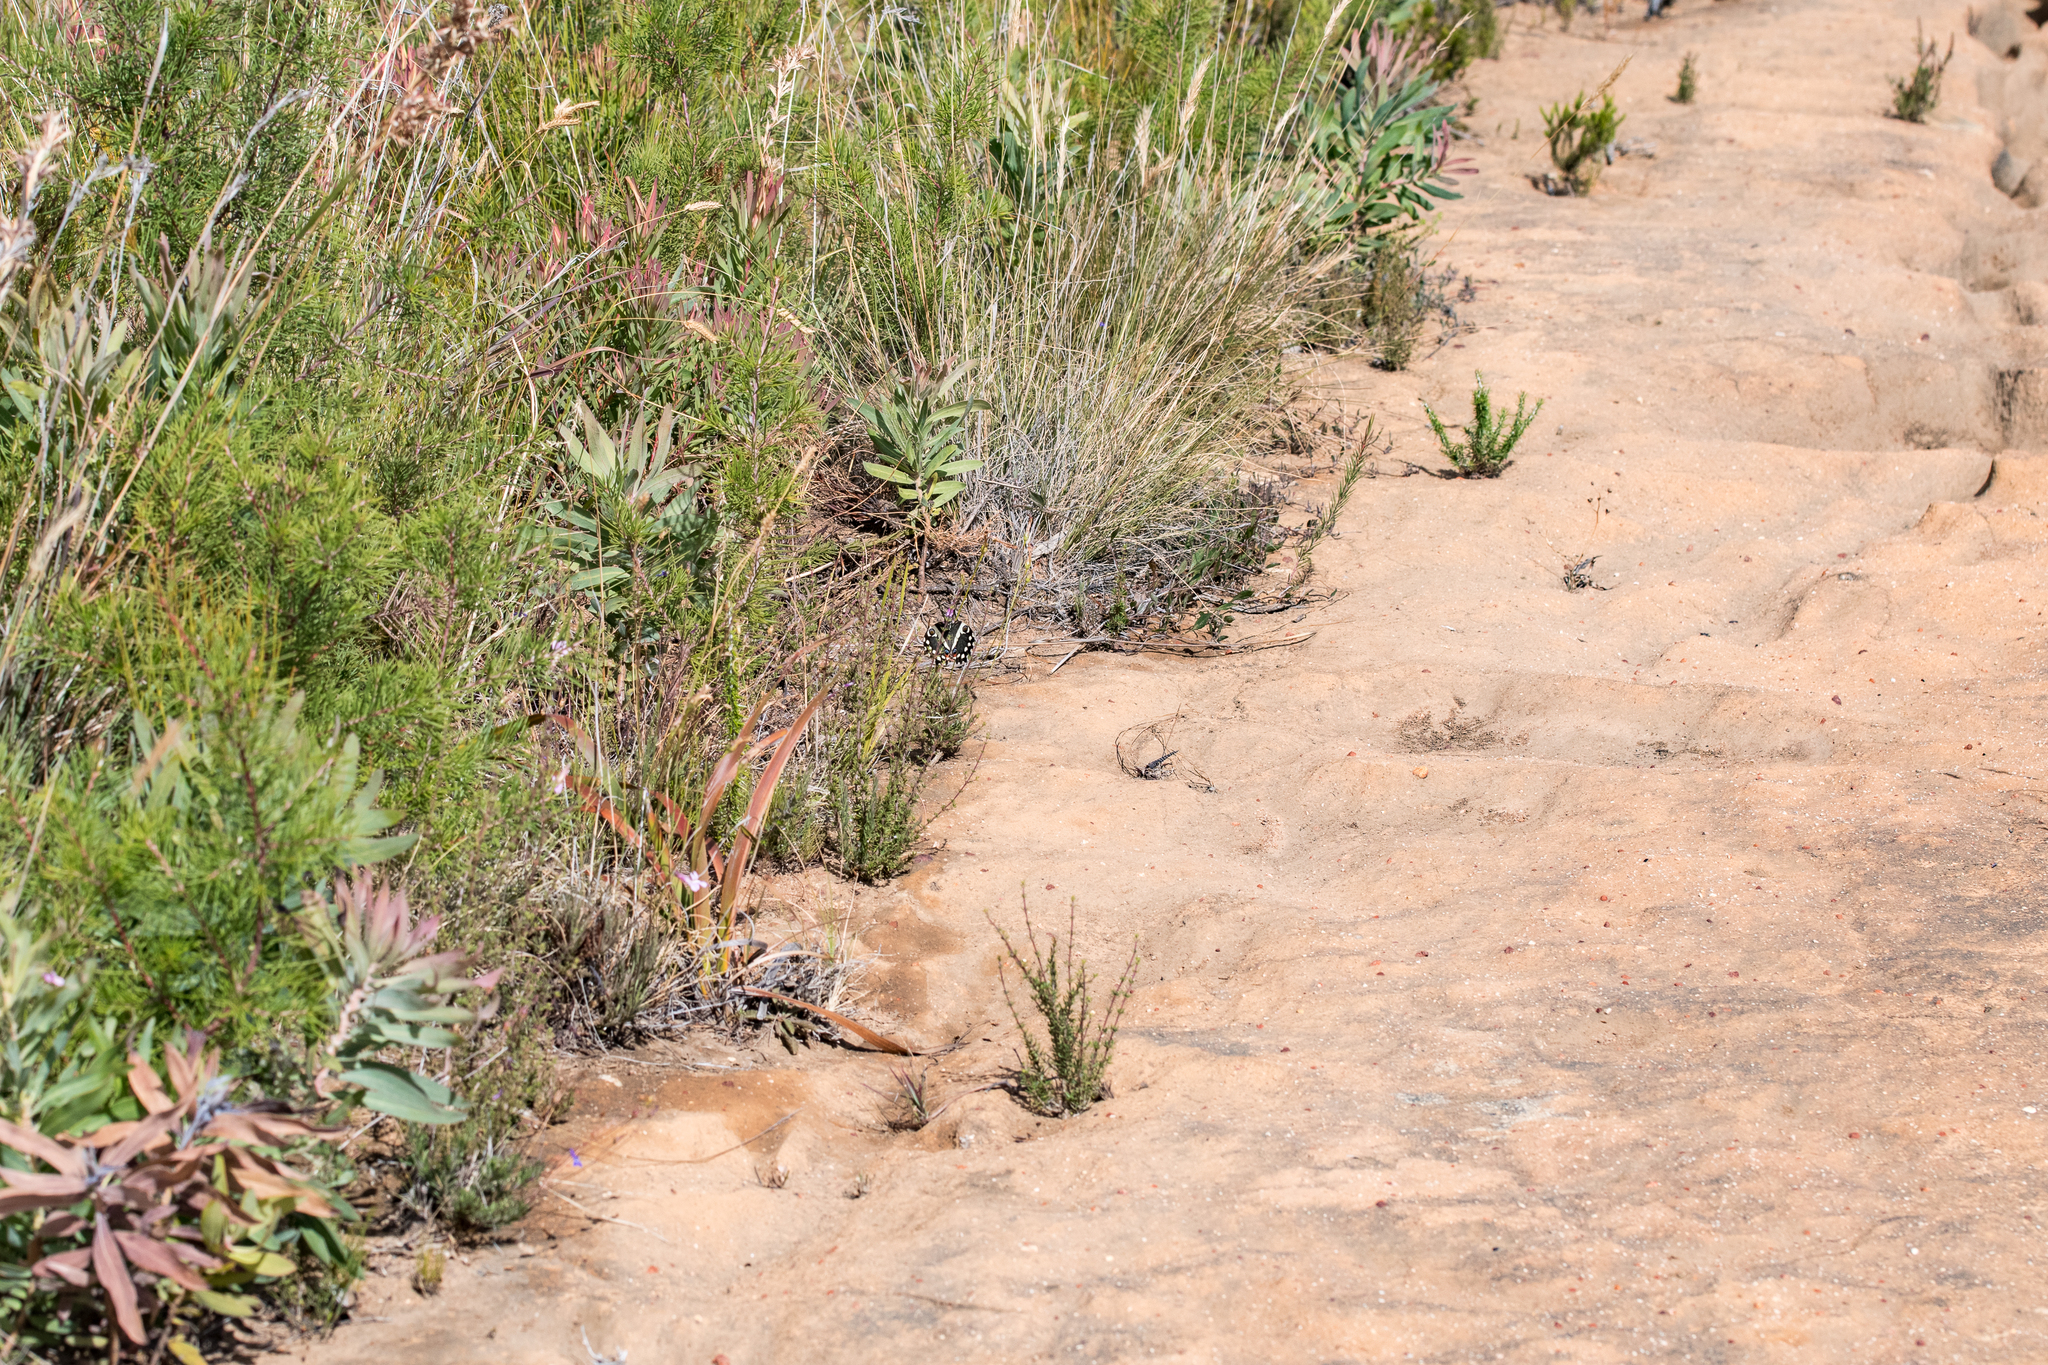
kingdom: Animalia
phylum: Arthropoda
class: Insecta
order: Lepidoptera
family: Papilionidae
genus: Papilio
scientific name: Papilio demodocus
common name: Christmas butterfly
